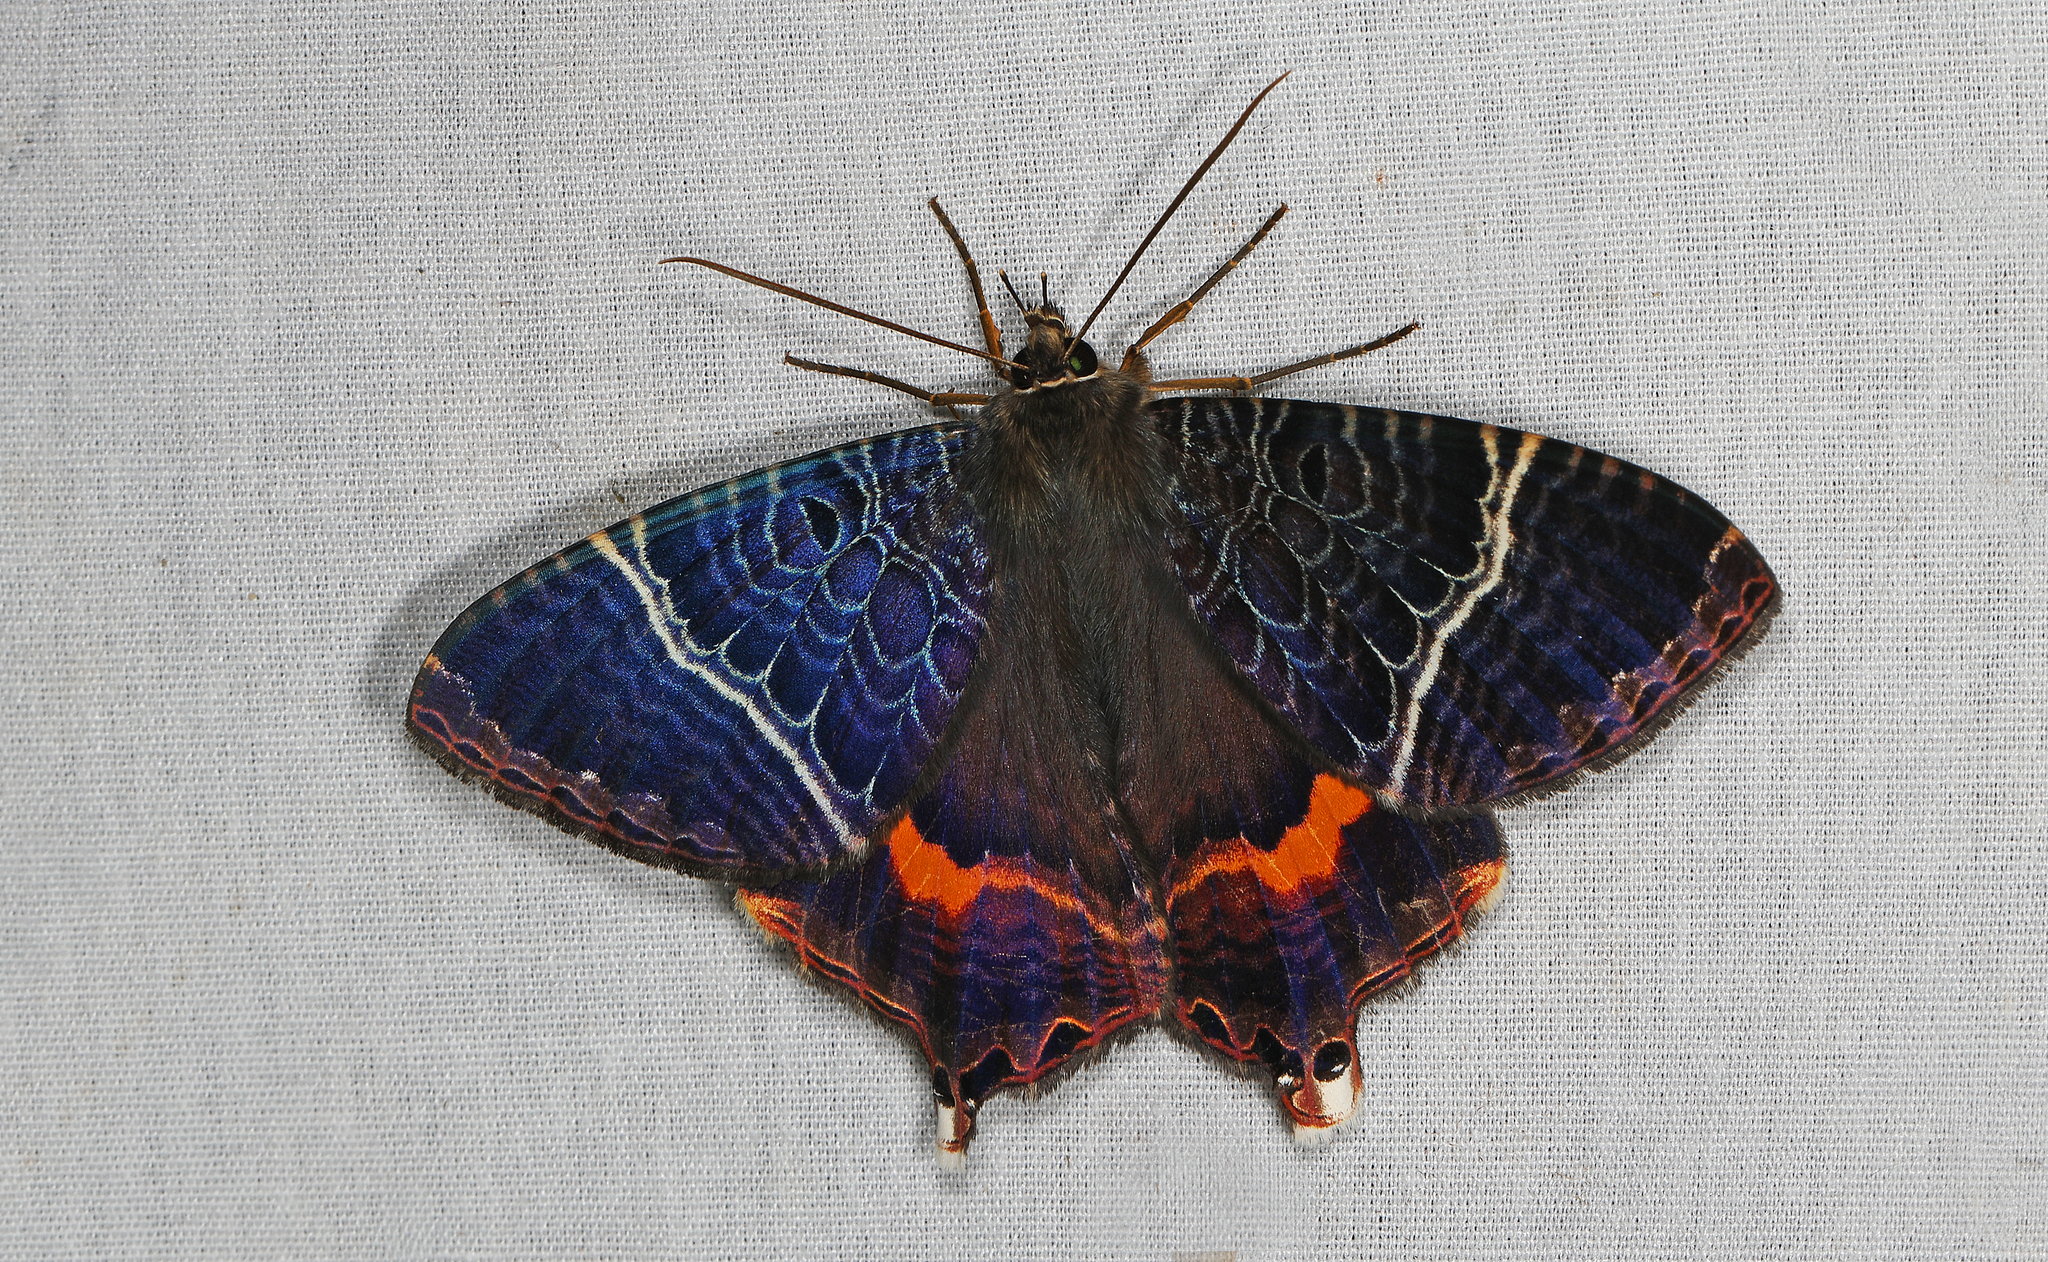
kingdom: Animalia
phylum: Arthropoda
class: Insecta
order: Lepidoptera
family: Sematuridae
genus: Coronidia
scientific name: Coronidia subpicta
